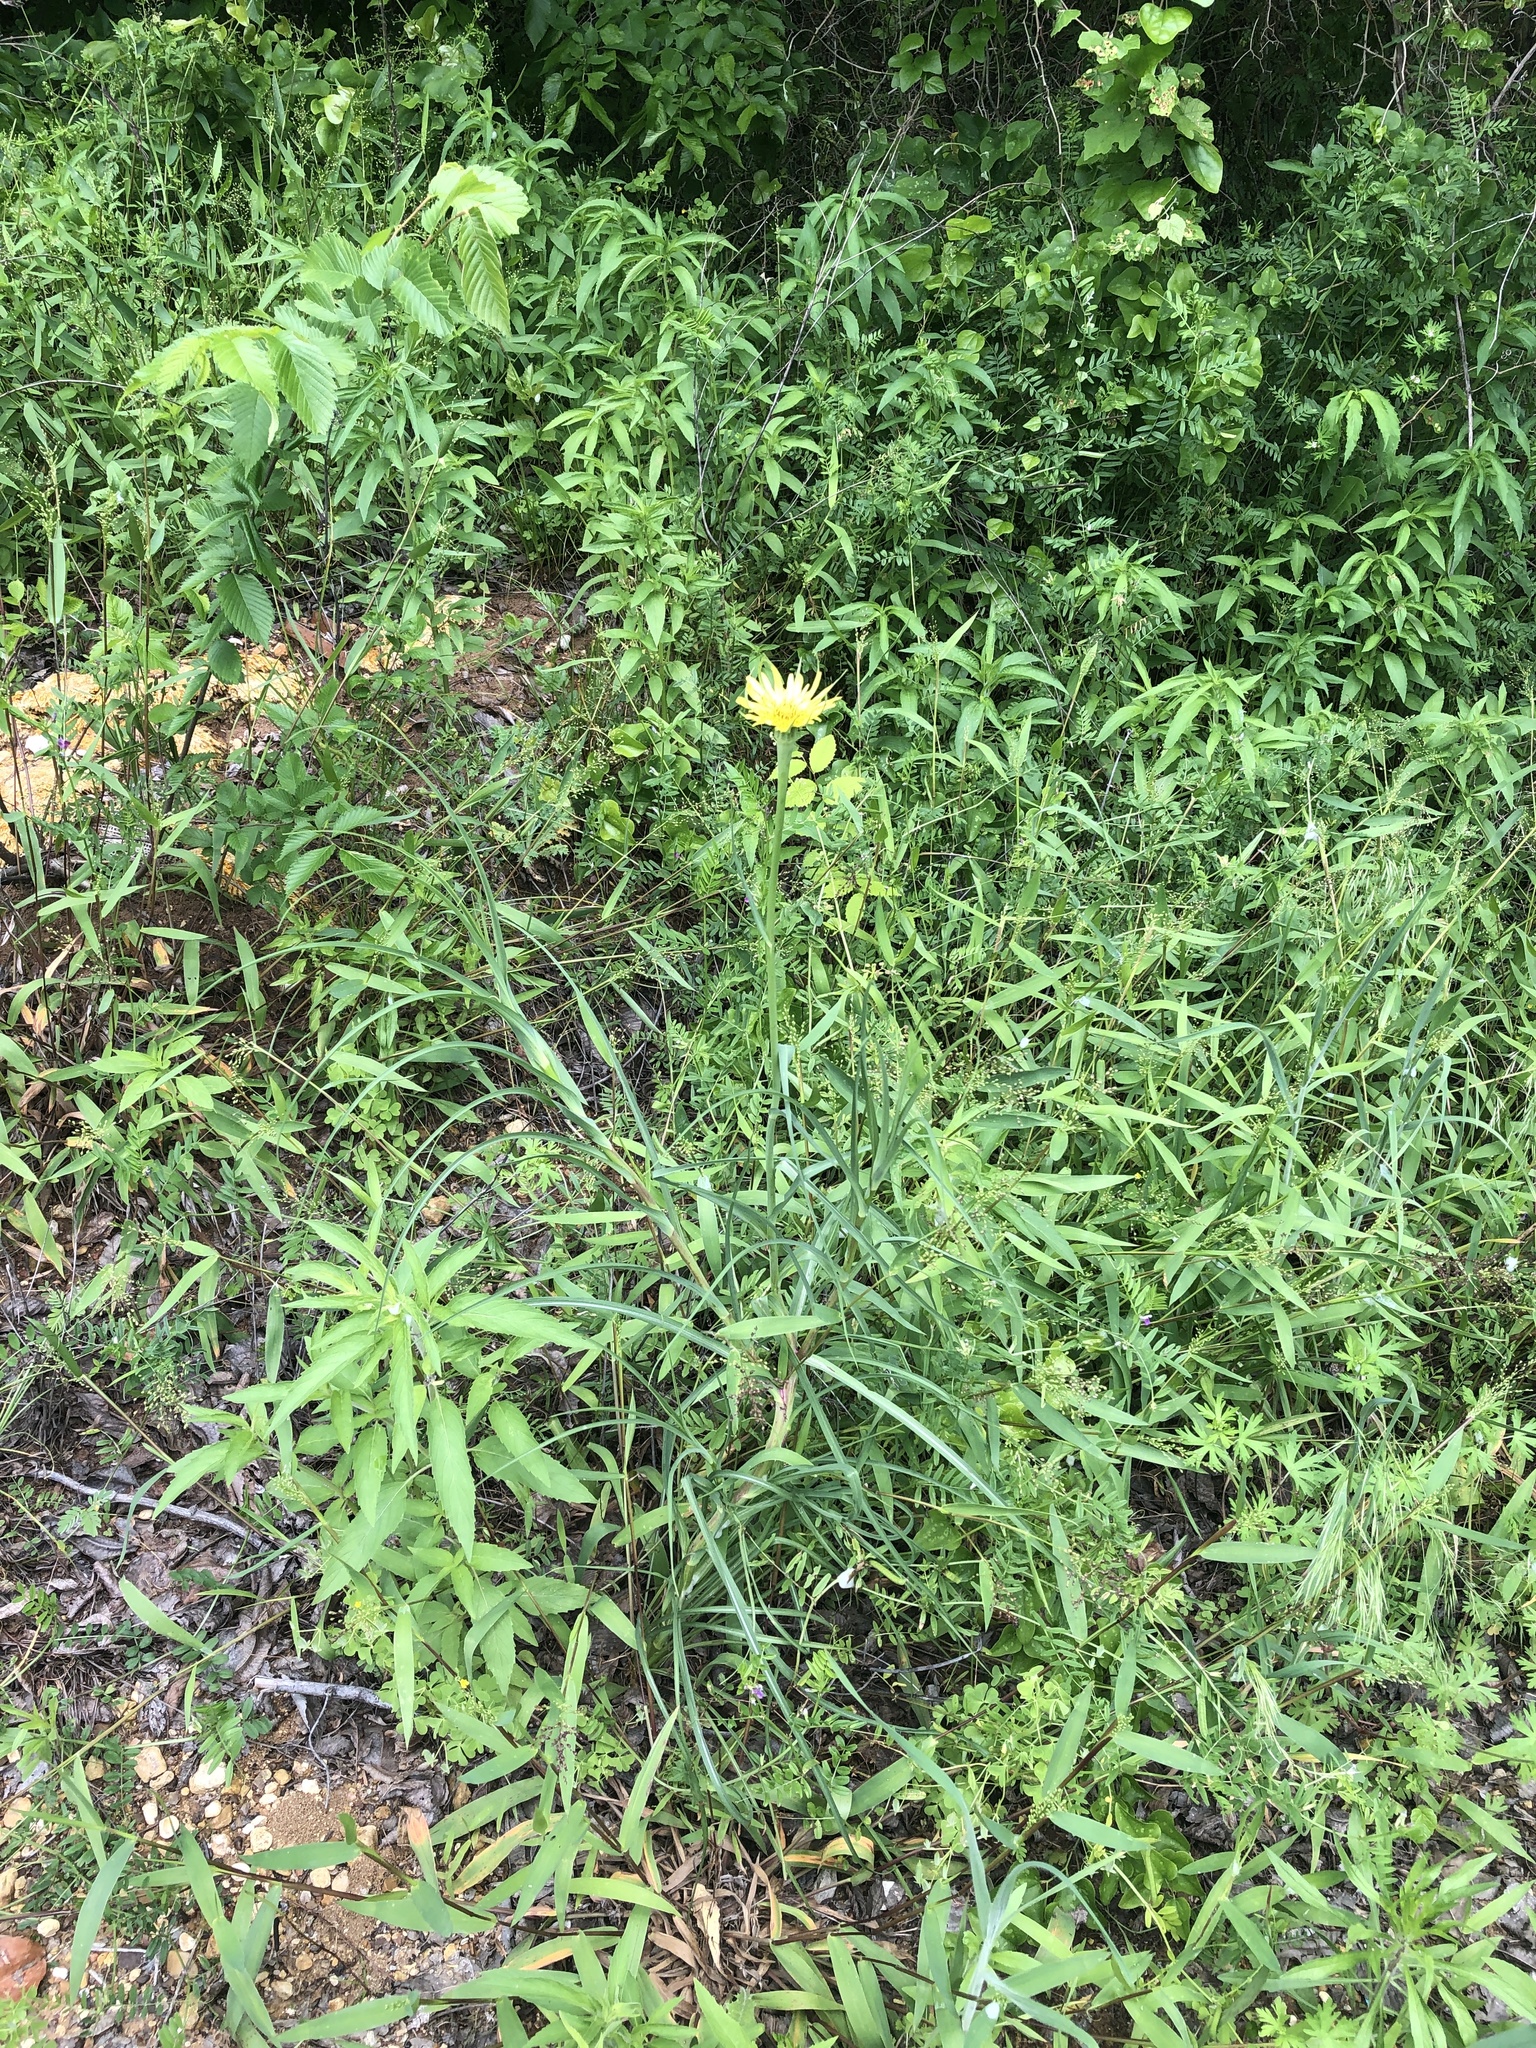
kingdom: Plantae
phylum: Tracheophyta
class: Magnoliopsida
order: Asterales
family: Asteraceae
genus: Tragopogon
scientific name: Tragopogon dubius
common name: Yellow salsify
